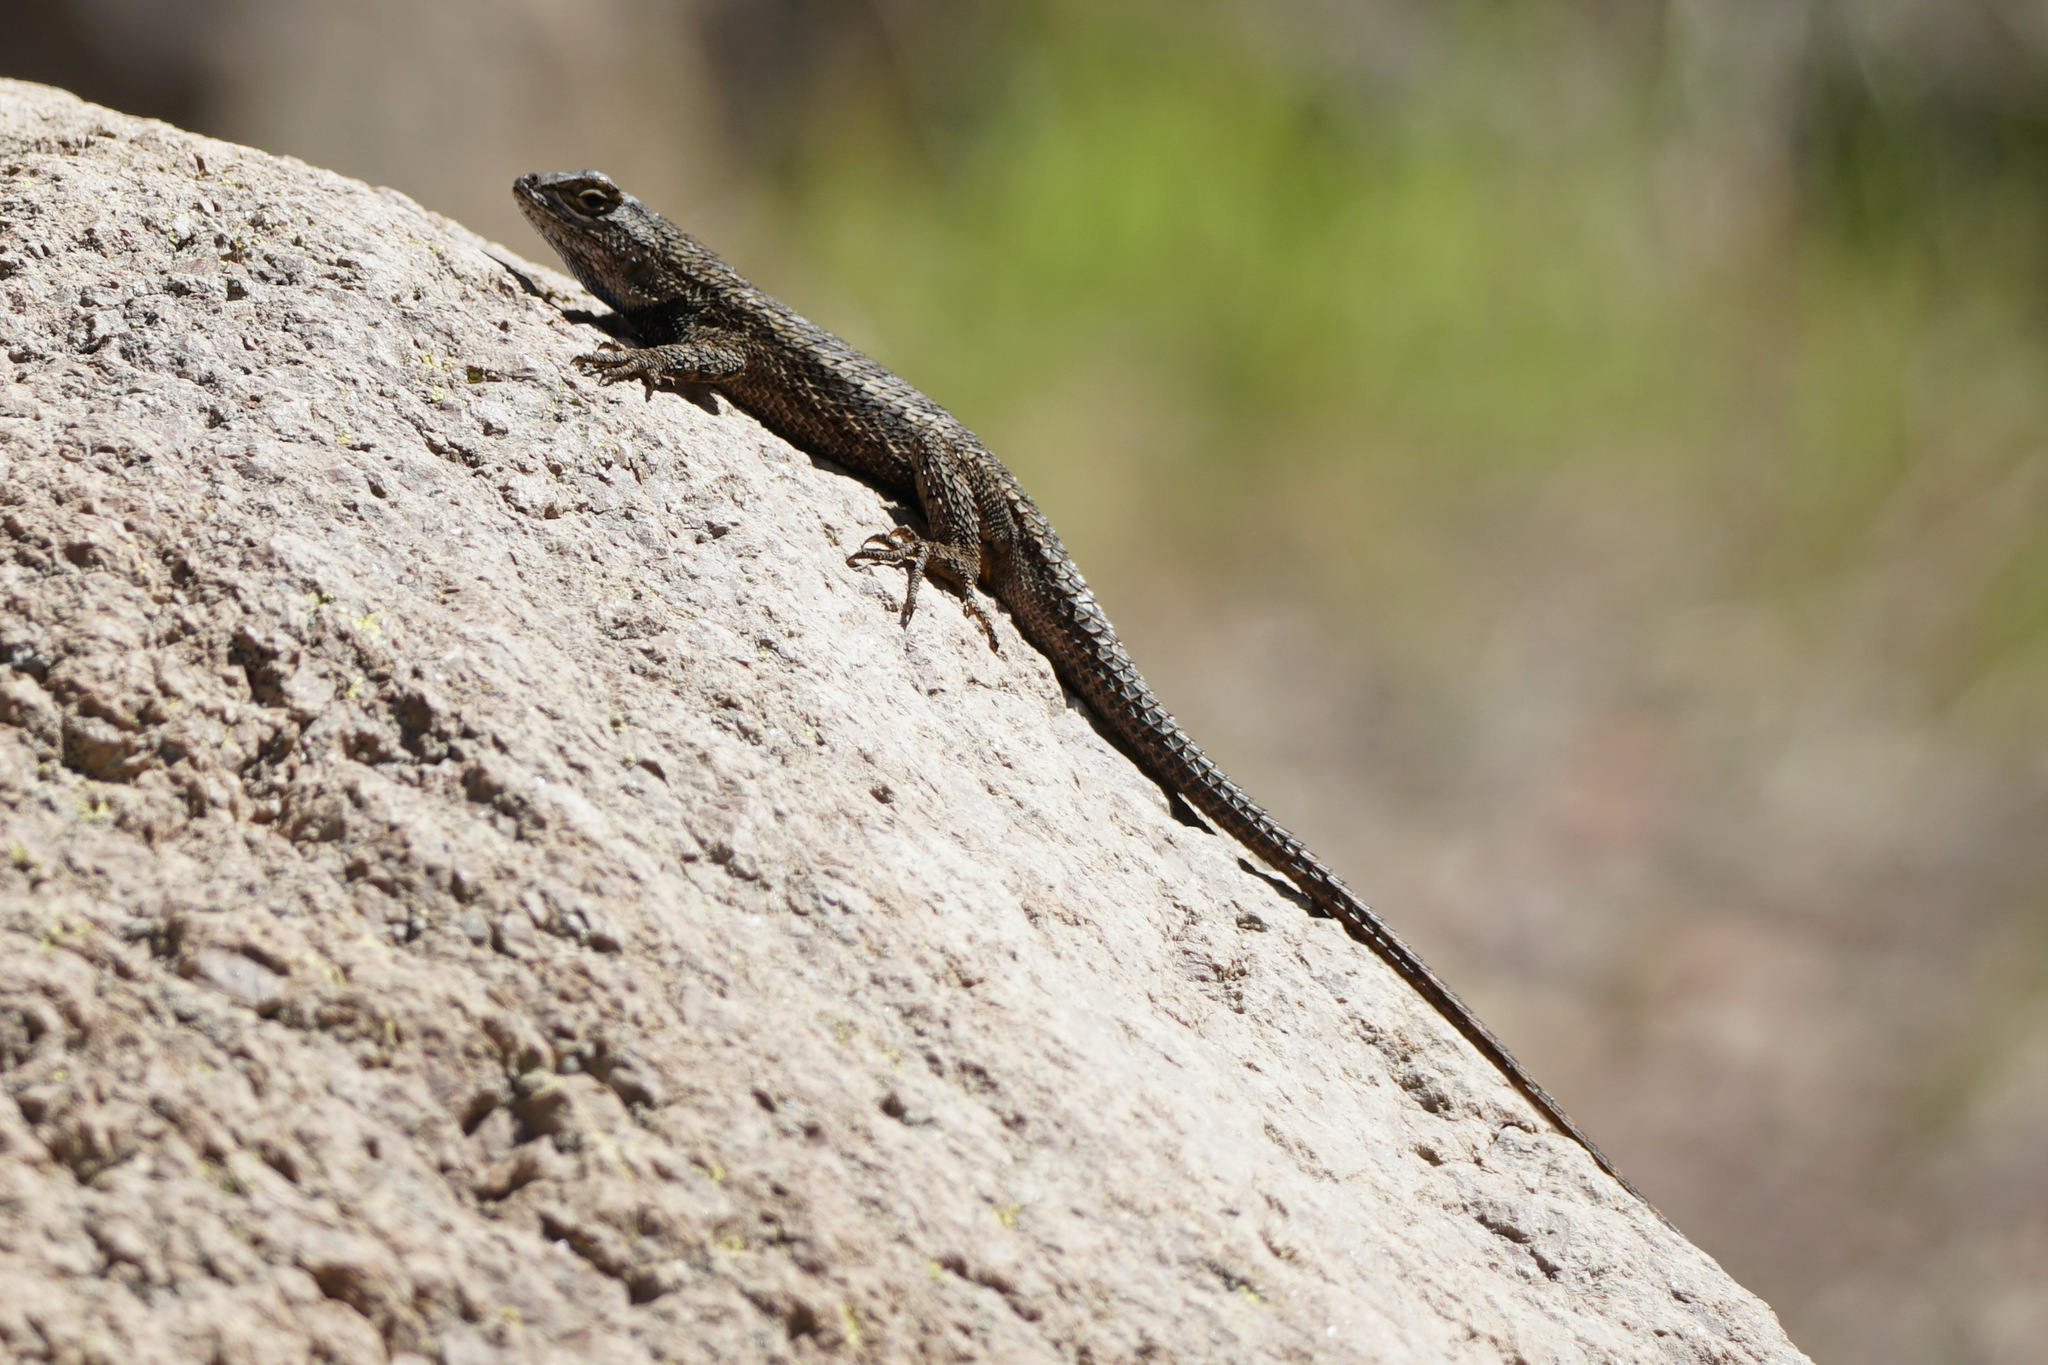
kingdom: Animalia
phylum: Chordata
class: Squamata
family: Phrynosomatidae
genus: Sceloporus
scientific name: Sceloporus occidentalis
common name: Western fence lizard
